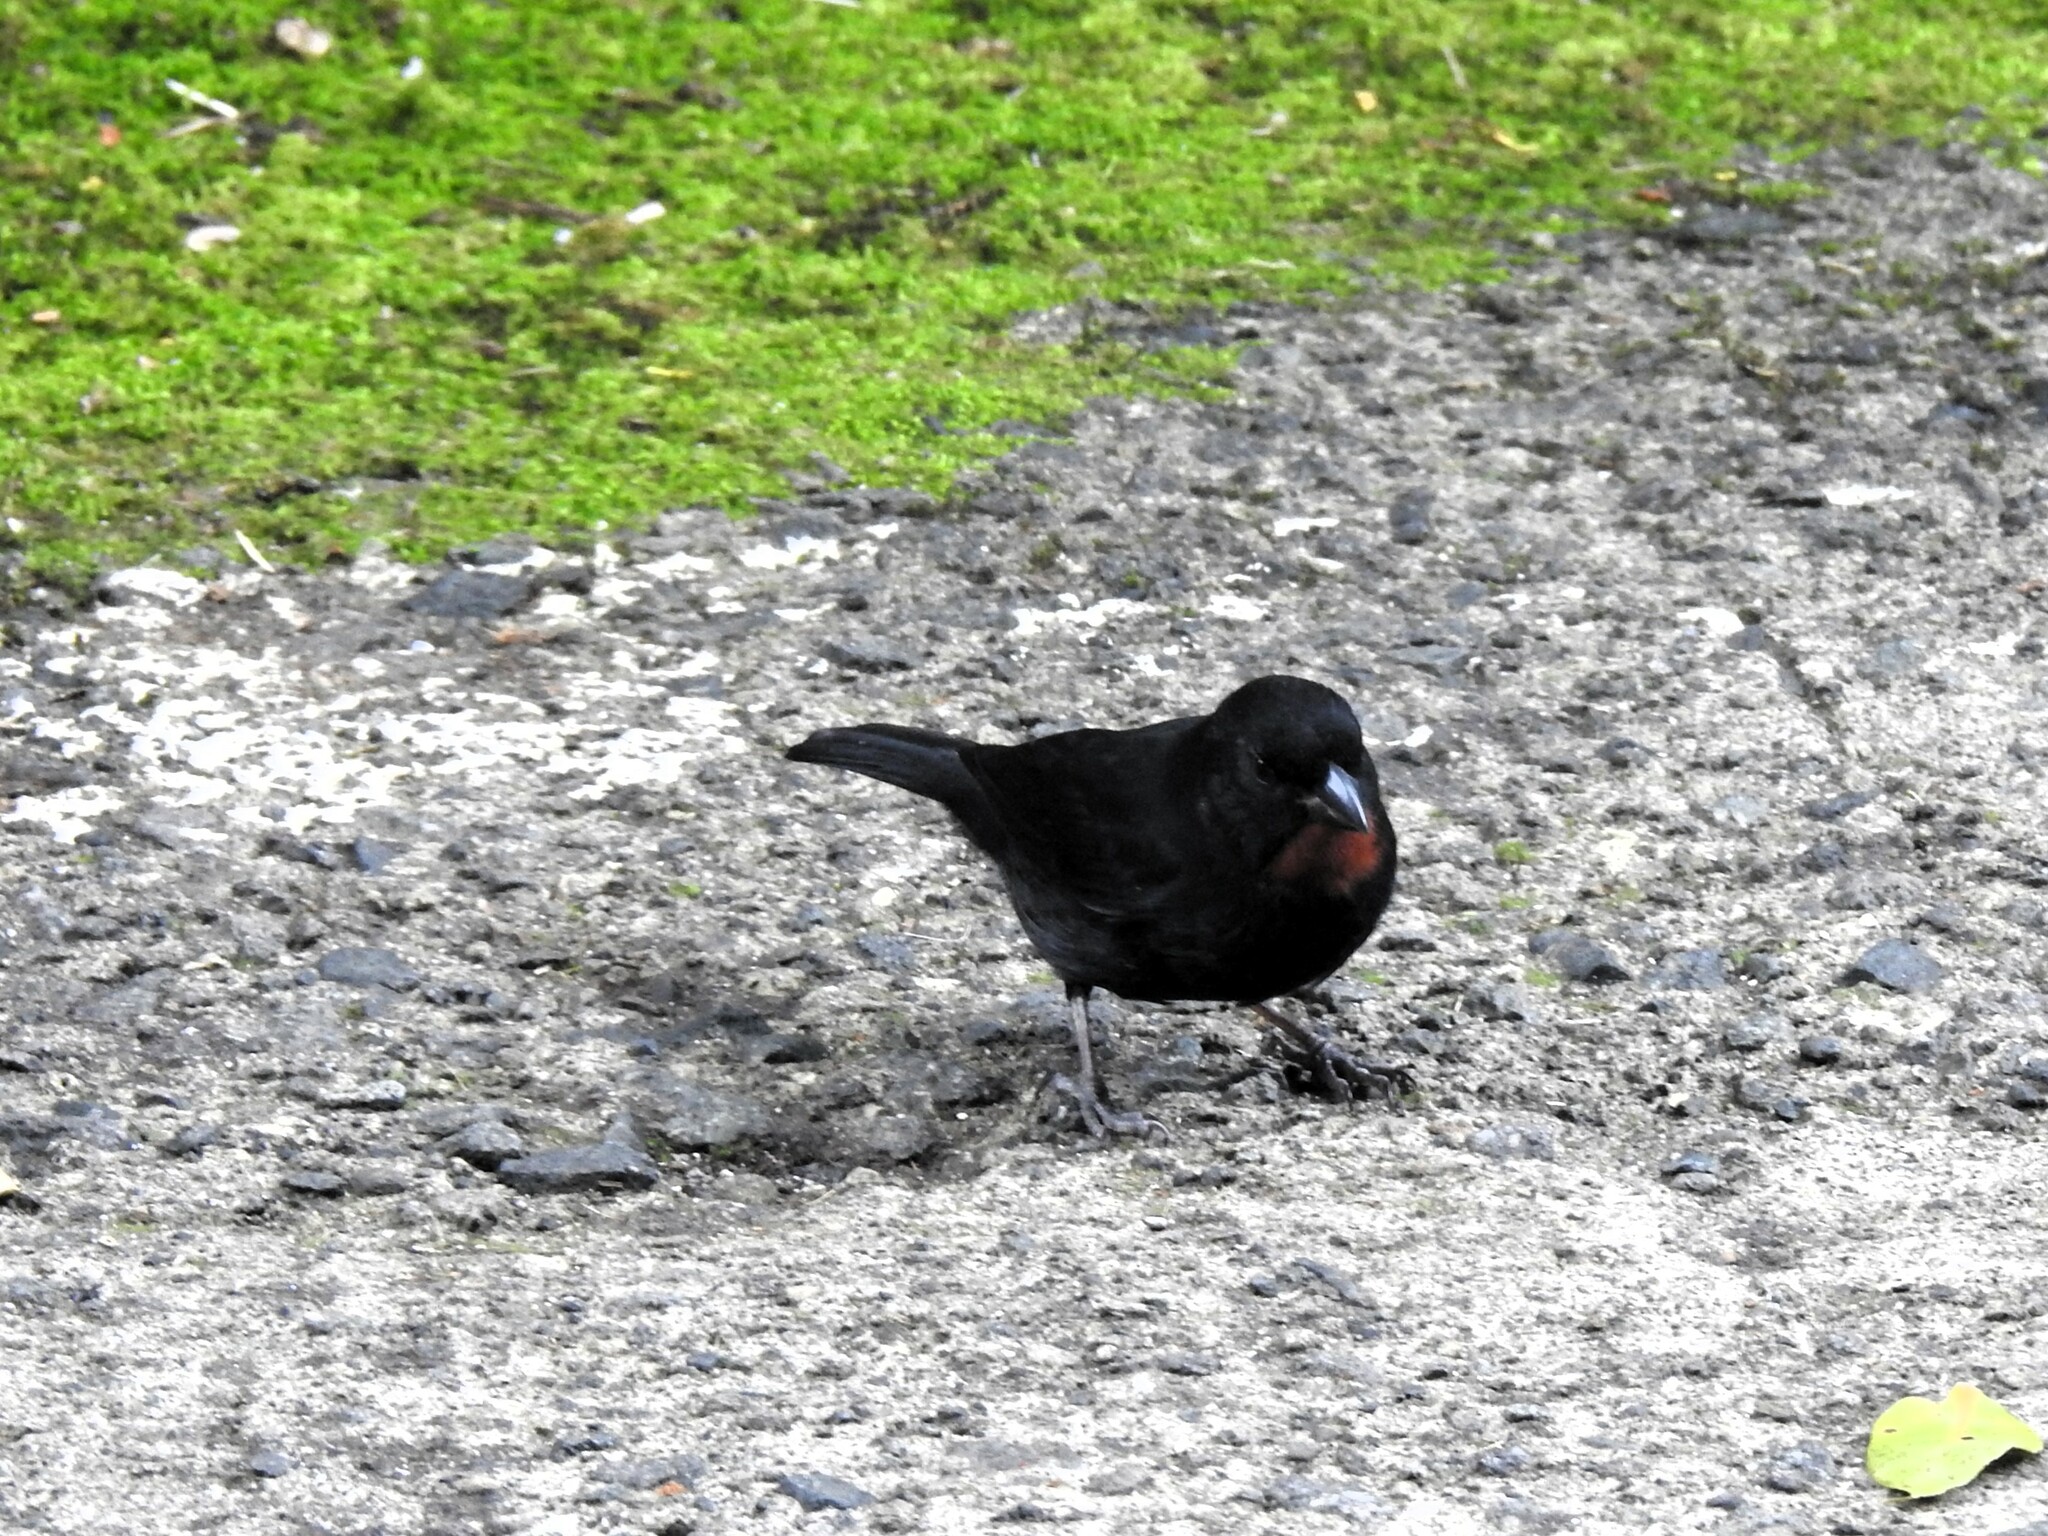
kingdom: Animalia
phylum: Chordata
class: Aves
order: Passeriformes
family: Thraupidae
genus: Loxigilla
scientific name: Loxigilla noctis
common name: Lesser antillean bullfinch
